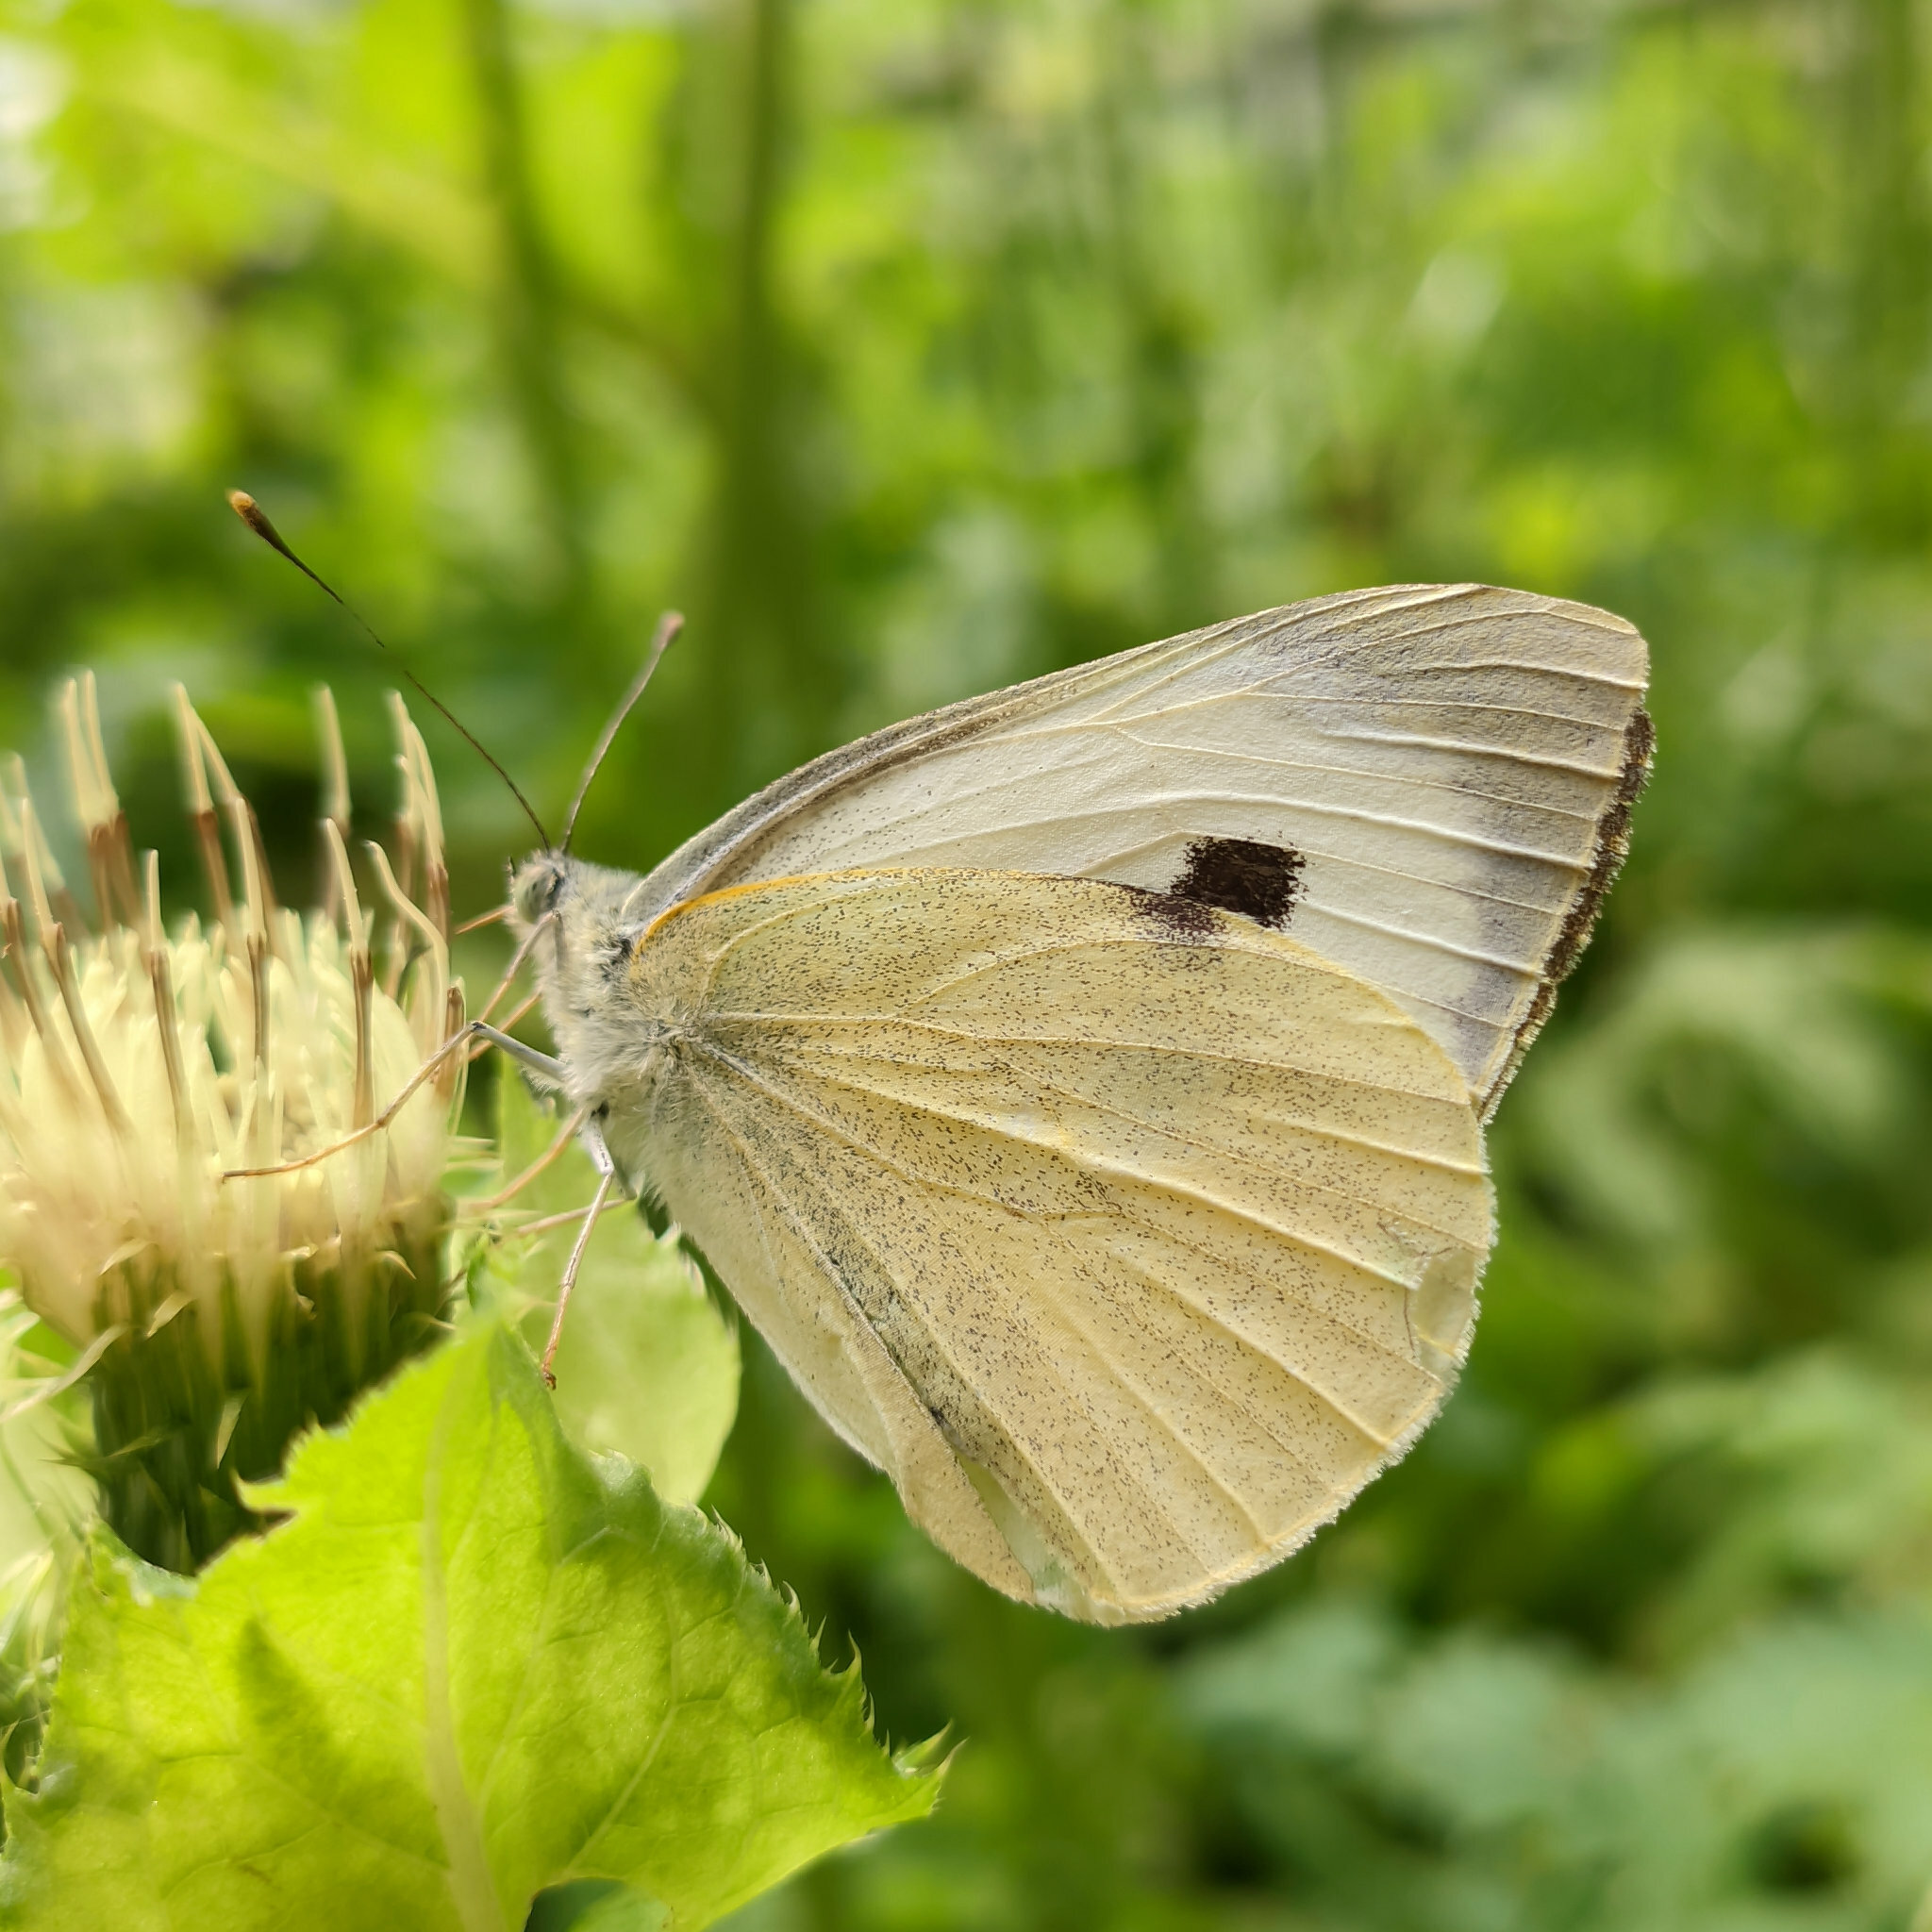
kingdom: Animalia
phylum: Arthropoda
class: Insecta
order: Lepidoptera
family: Pieridae
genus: Pieris
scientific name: Pieris brassicae
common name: Large white
